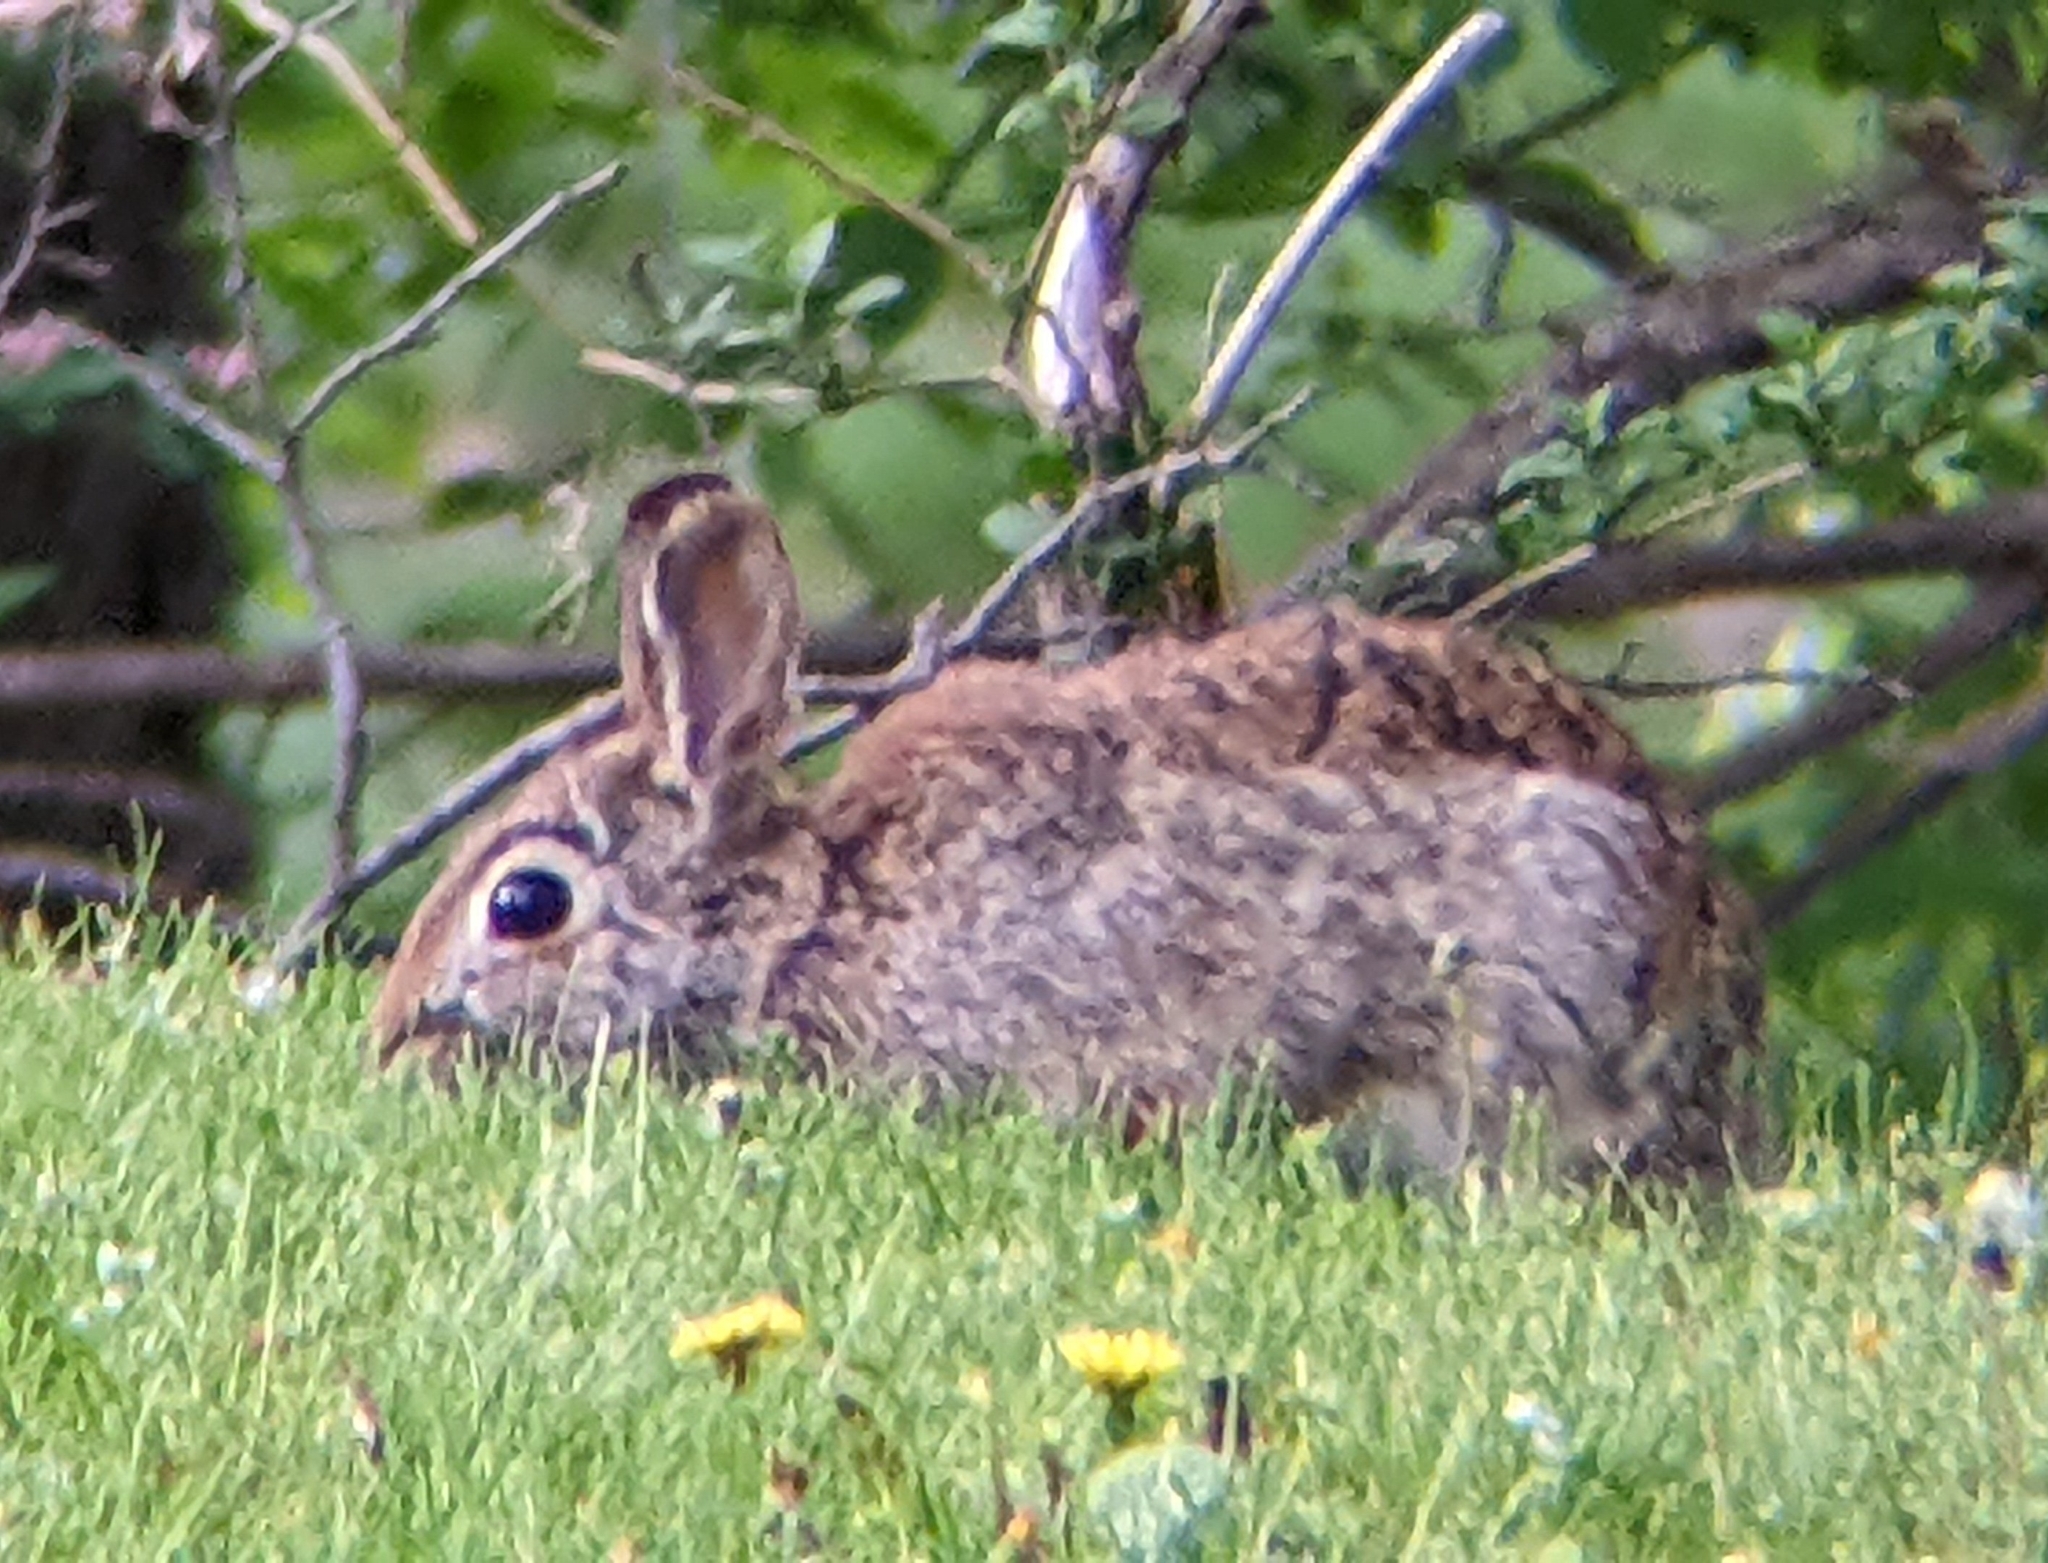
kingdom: Animalia
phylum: Chordata
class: Mammalia
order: Lagomorpha
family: Leporidae
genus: Sylvilagus
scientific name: Sylvilagus floridanus
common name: Eastern cottontail
